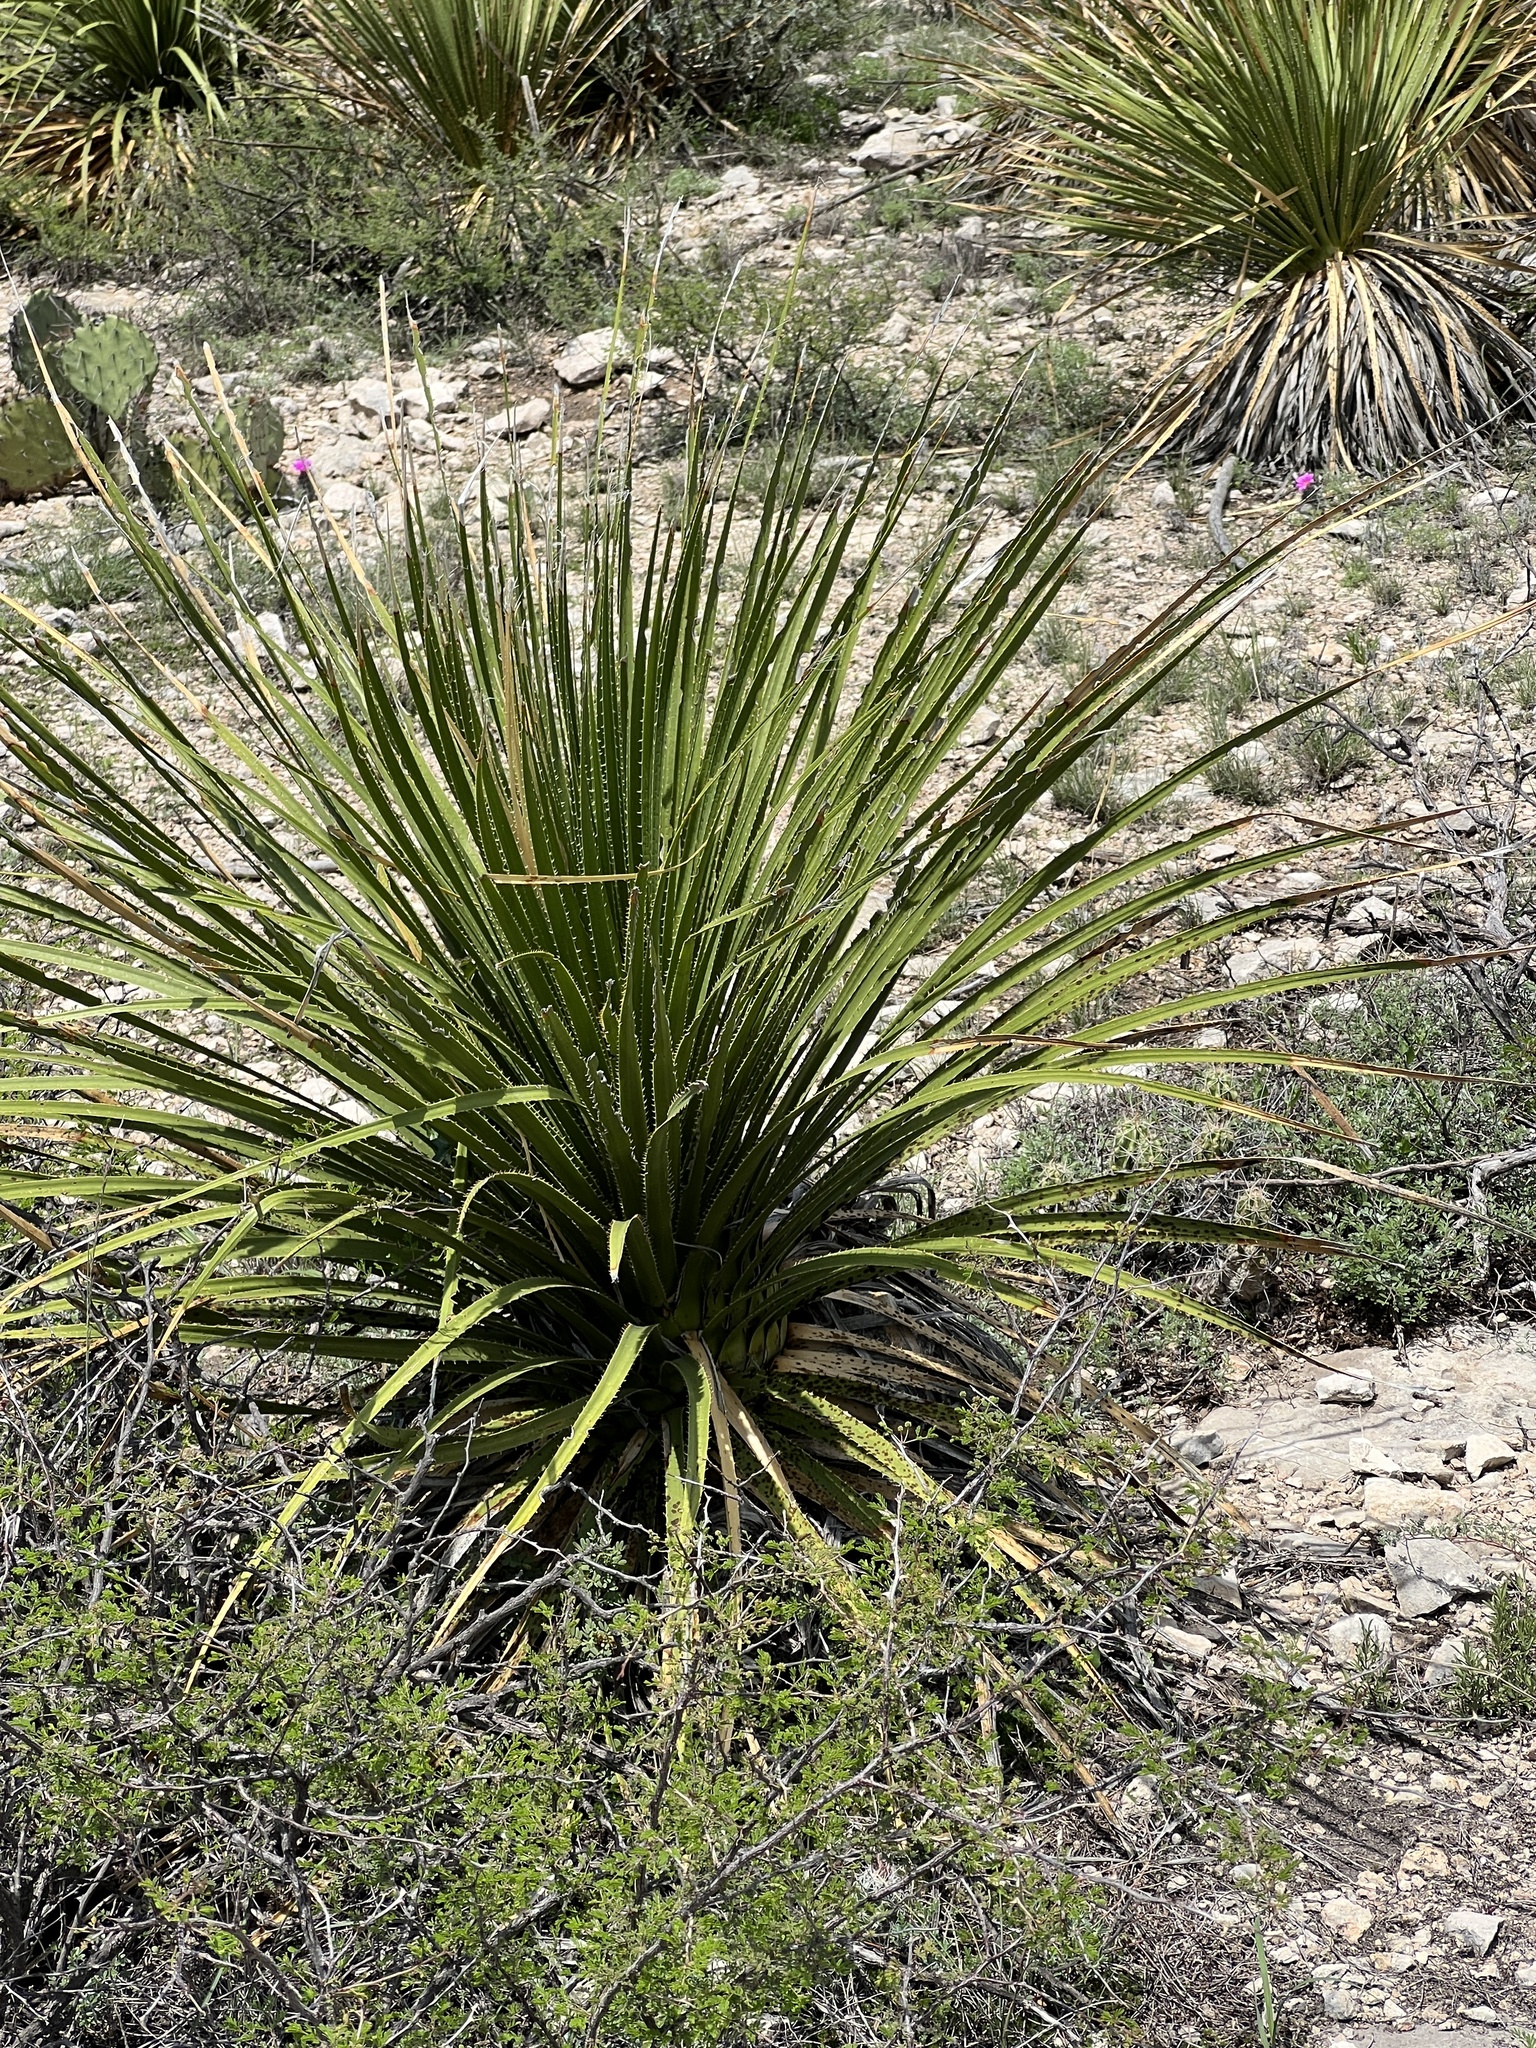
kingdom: Plantae
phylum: Tracheophyta
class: Liliopsida
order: Asparagales
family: Asparagaceae
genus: Dasylirion
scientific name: Dasylirion texanum
